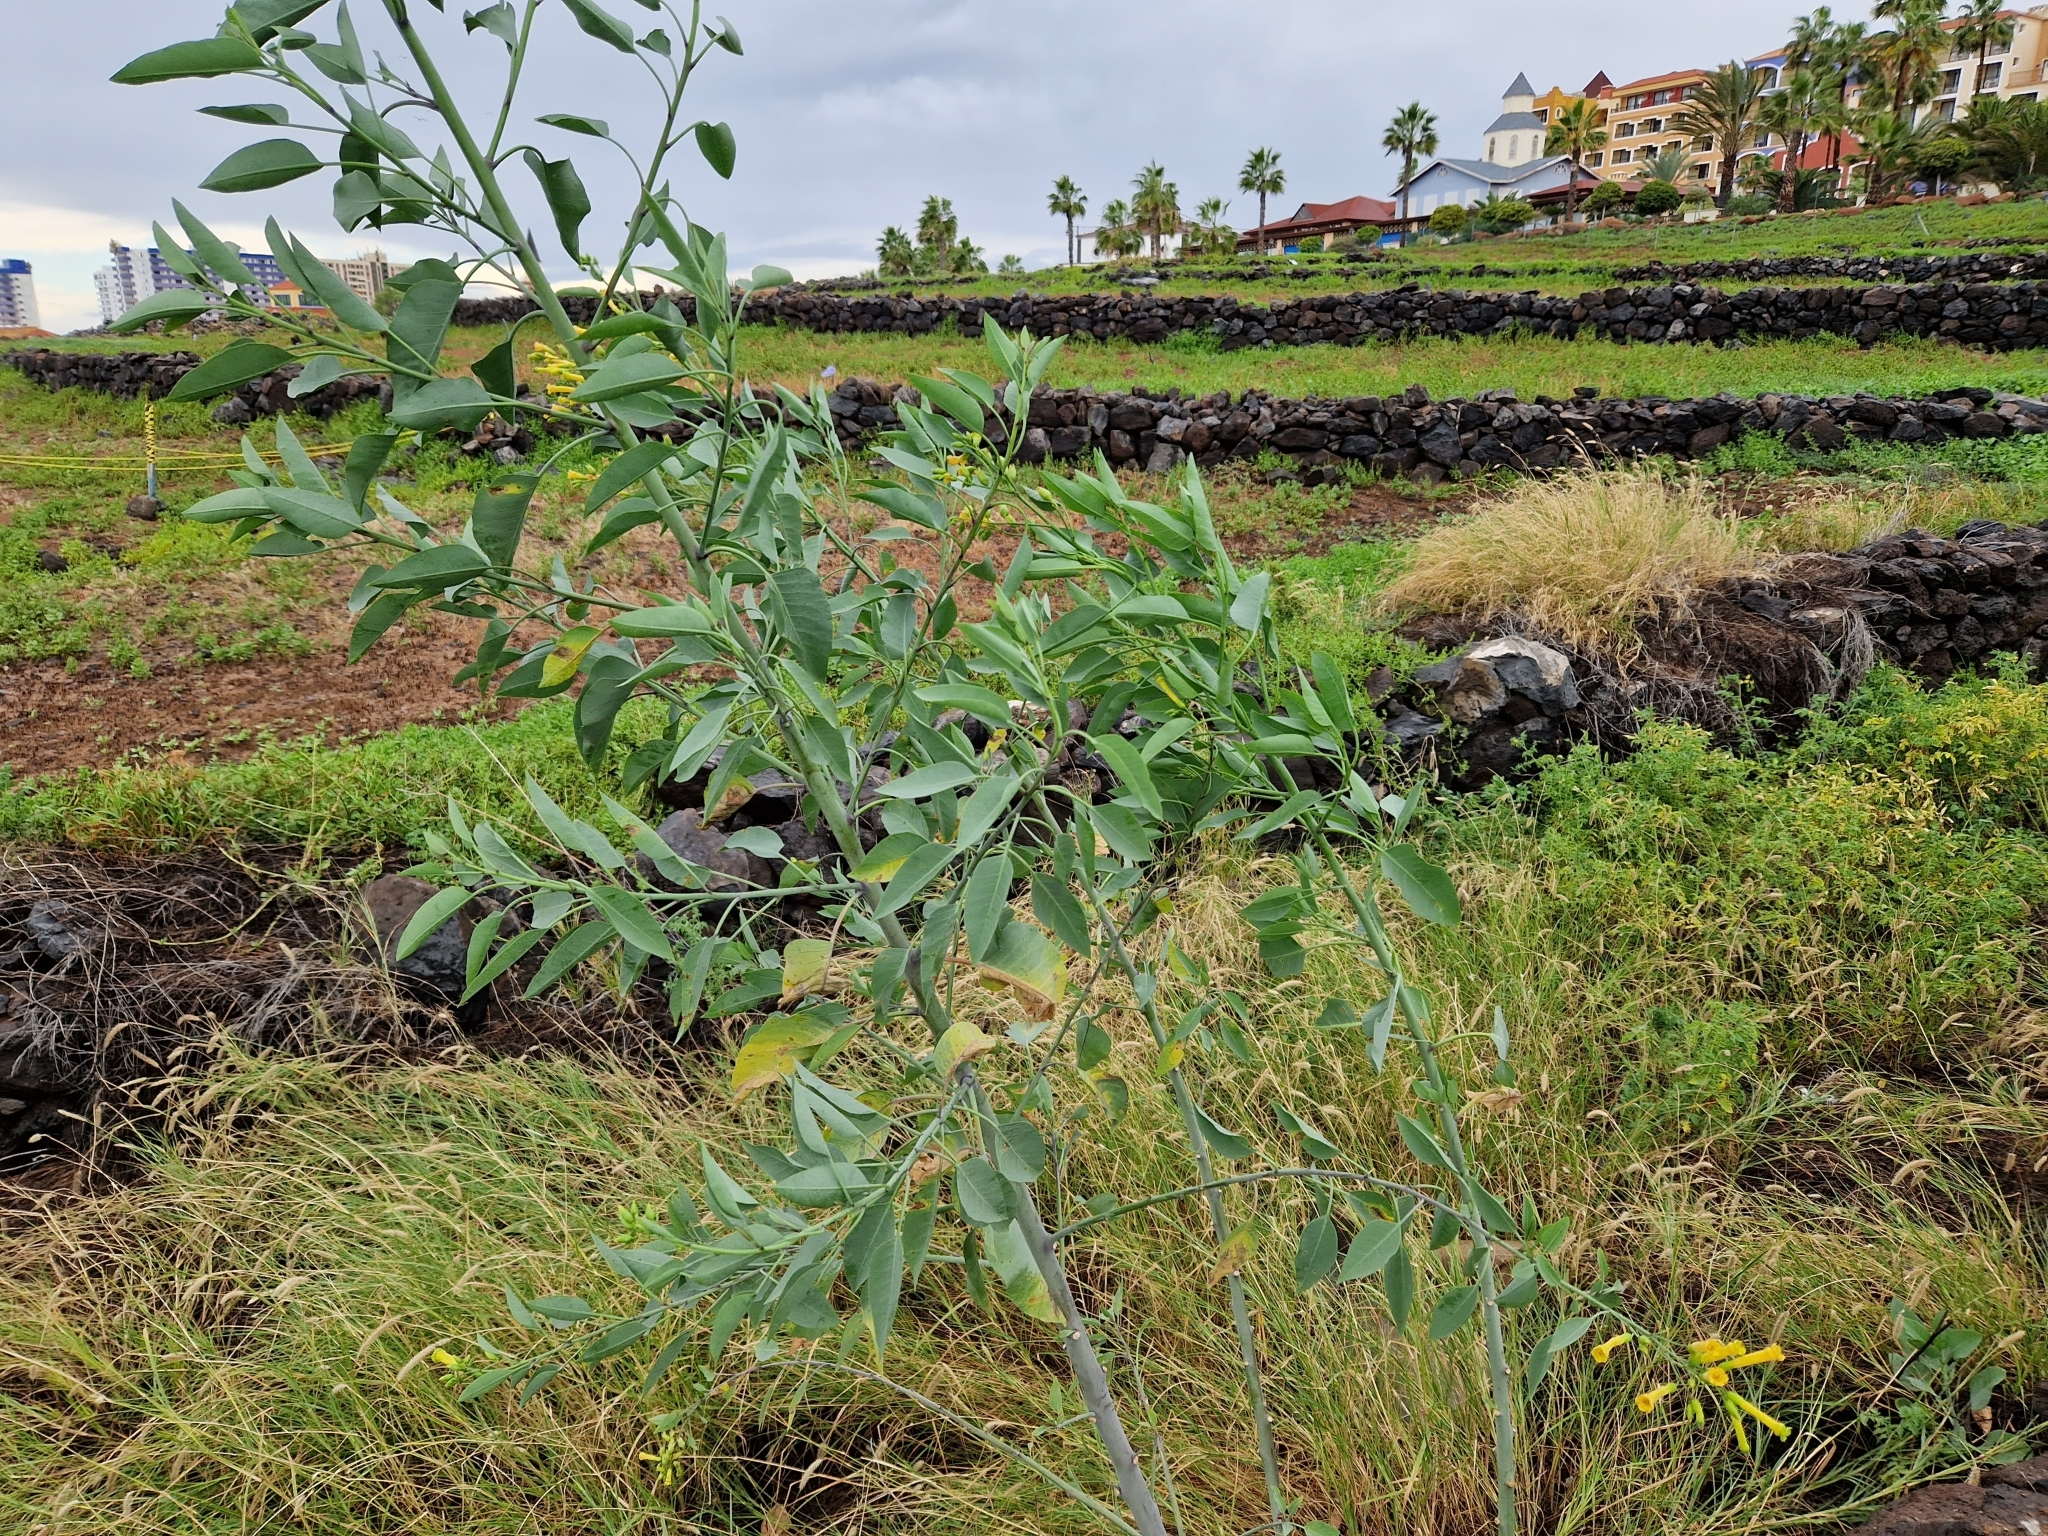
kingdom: Plantae
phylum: Tracheophyta
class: Magnoliopsida
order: Solanales
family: Solanaceae
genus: Nicotiana
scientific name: Nicotiana glauca
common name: Tree tobacco
